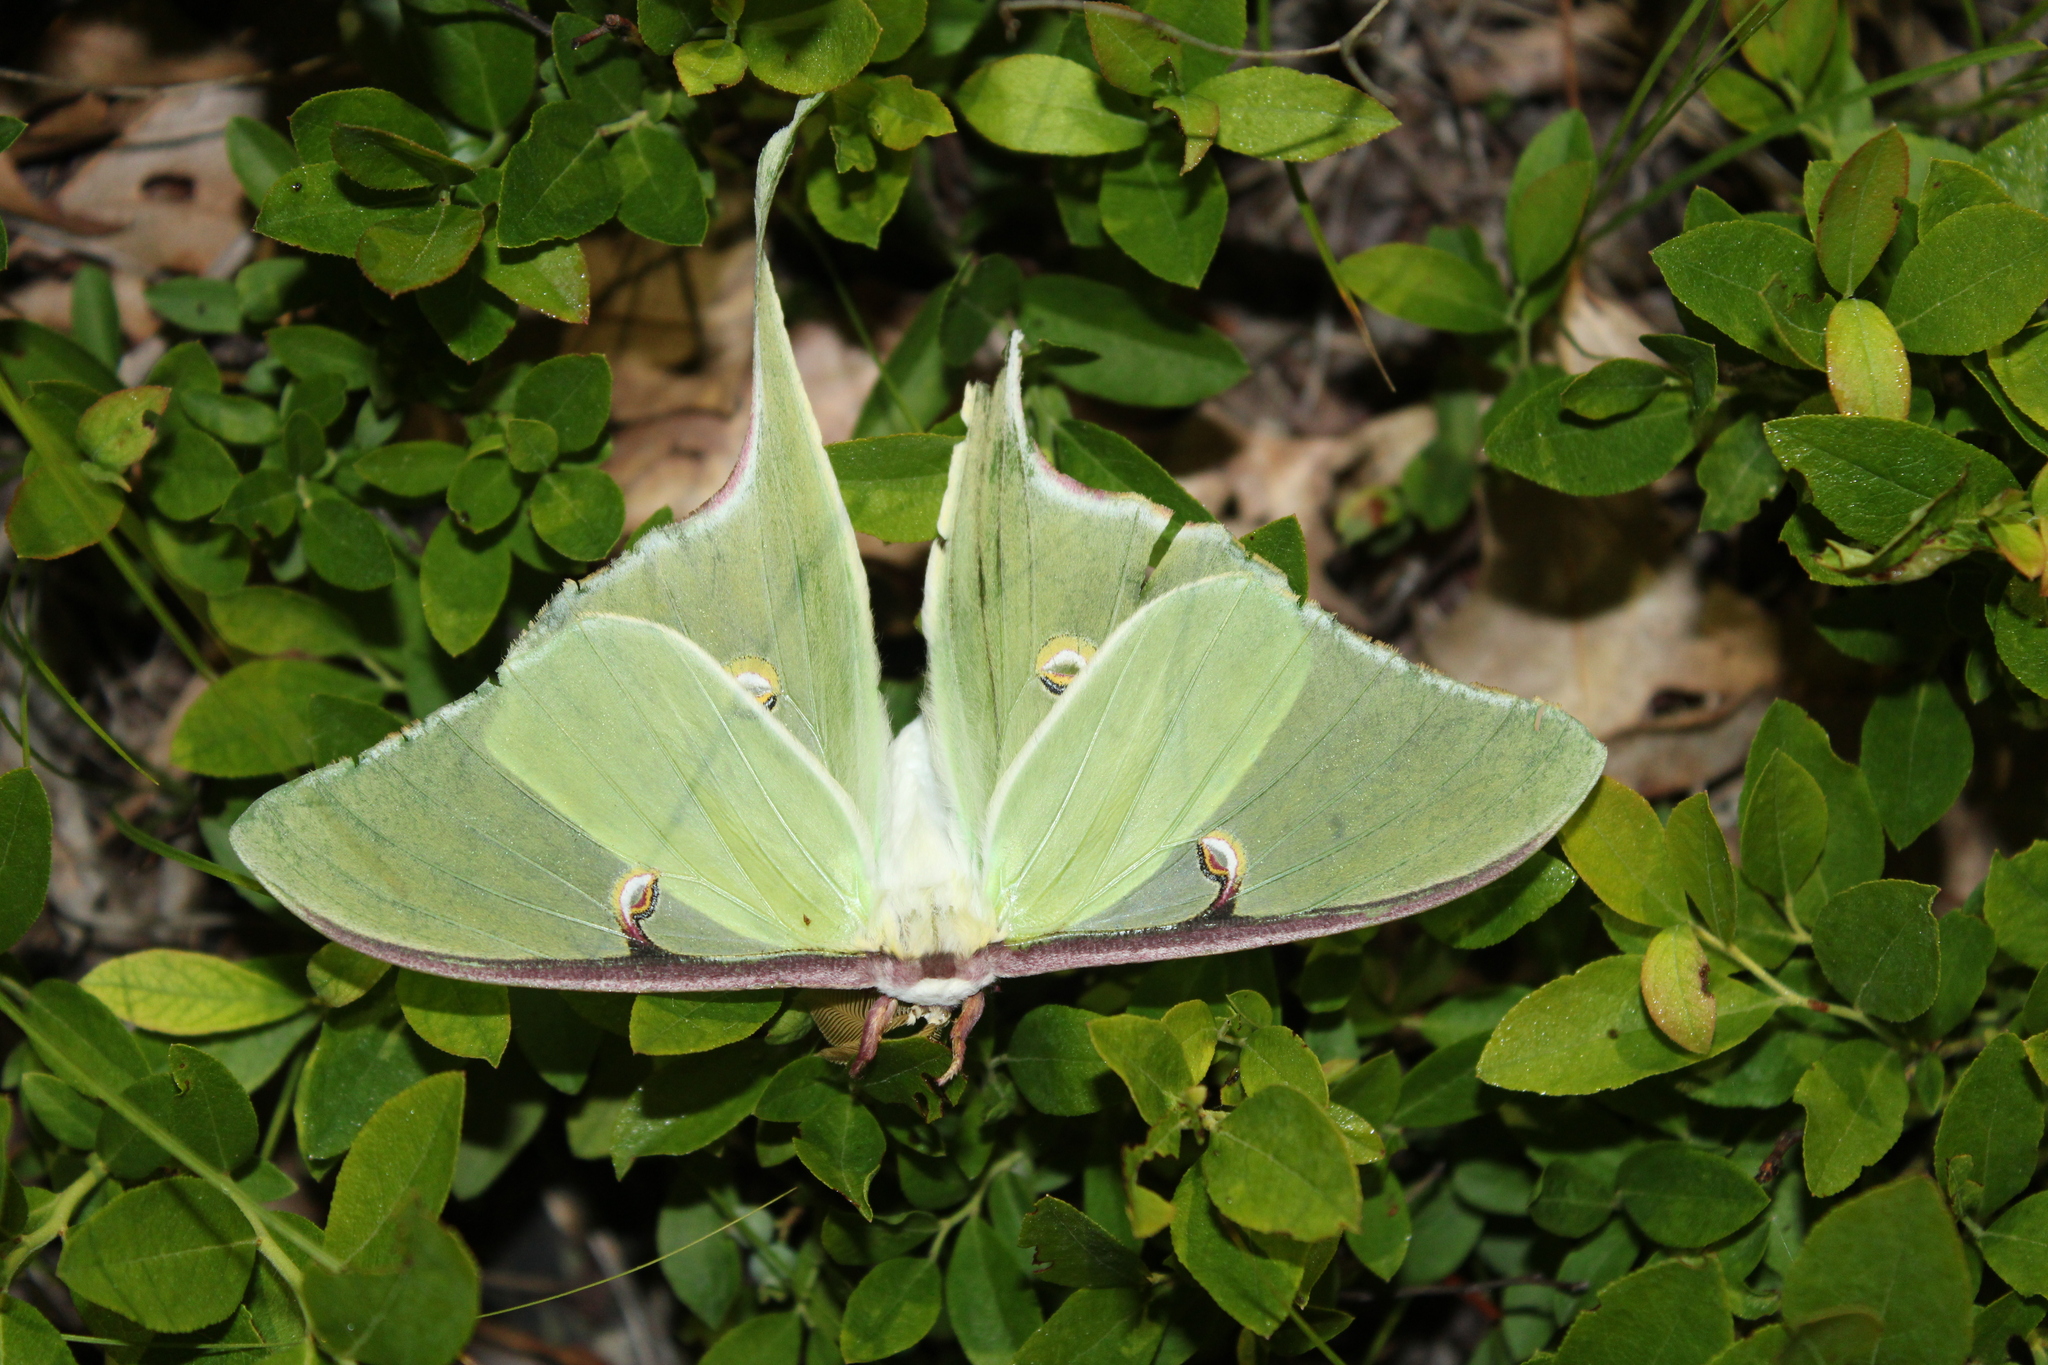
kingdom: Animalia
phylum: Arthropoda
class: Insecta
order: Lepidoptera
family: Saturniidae
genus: Actias
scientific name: Actias luna
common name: Luna moth
